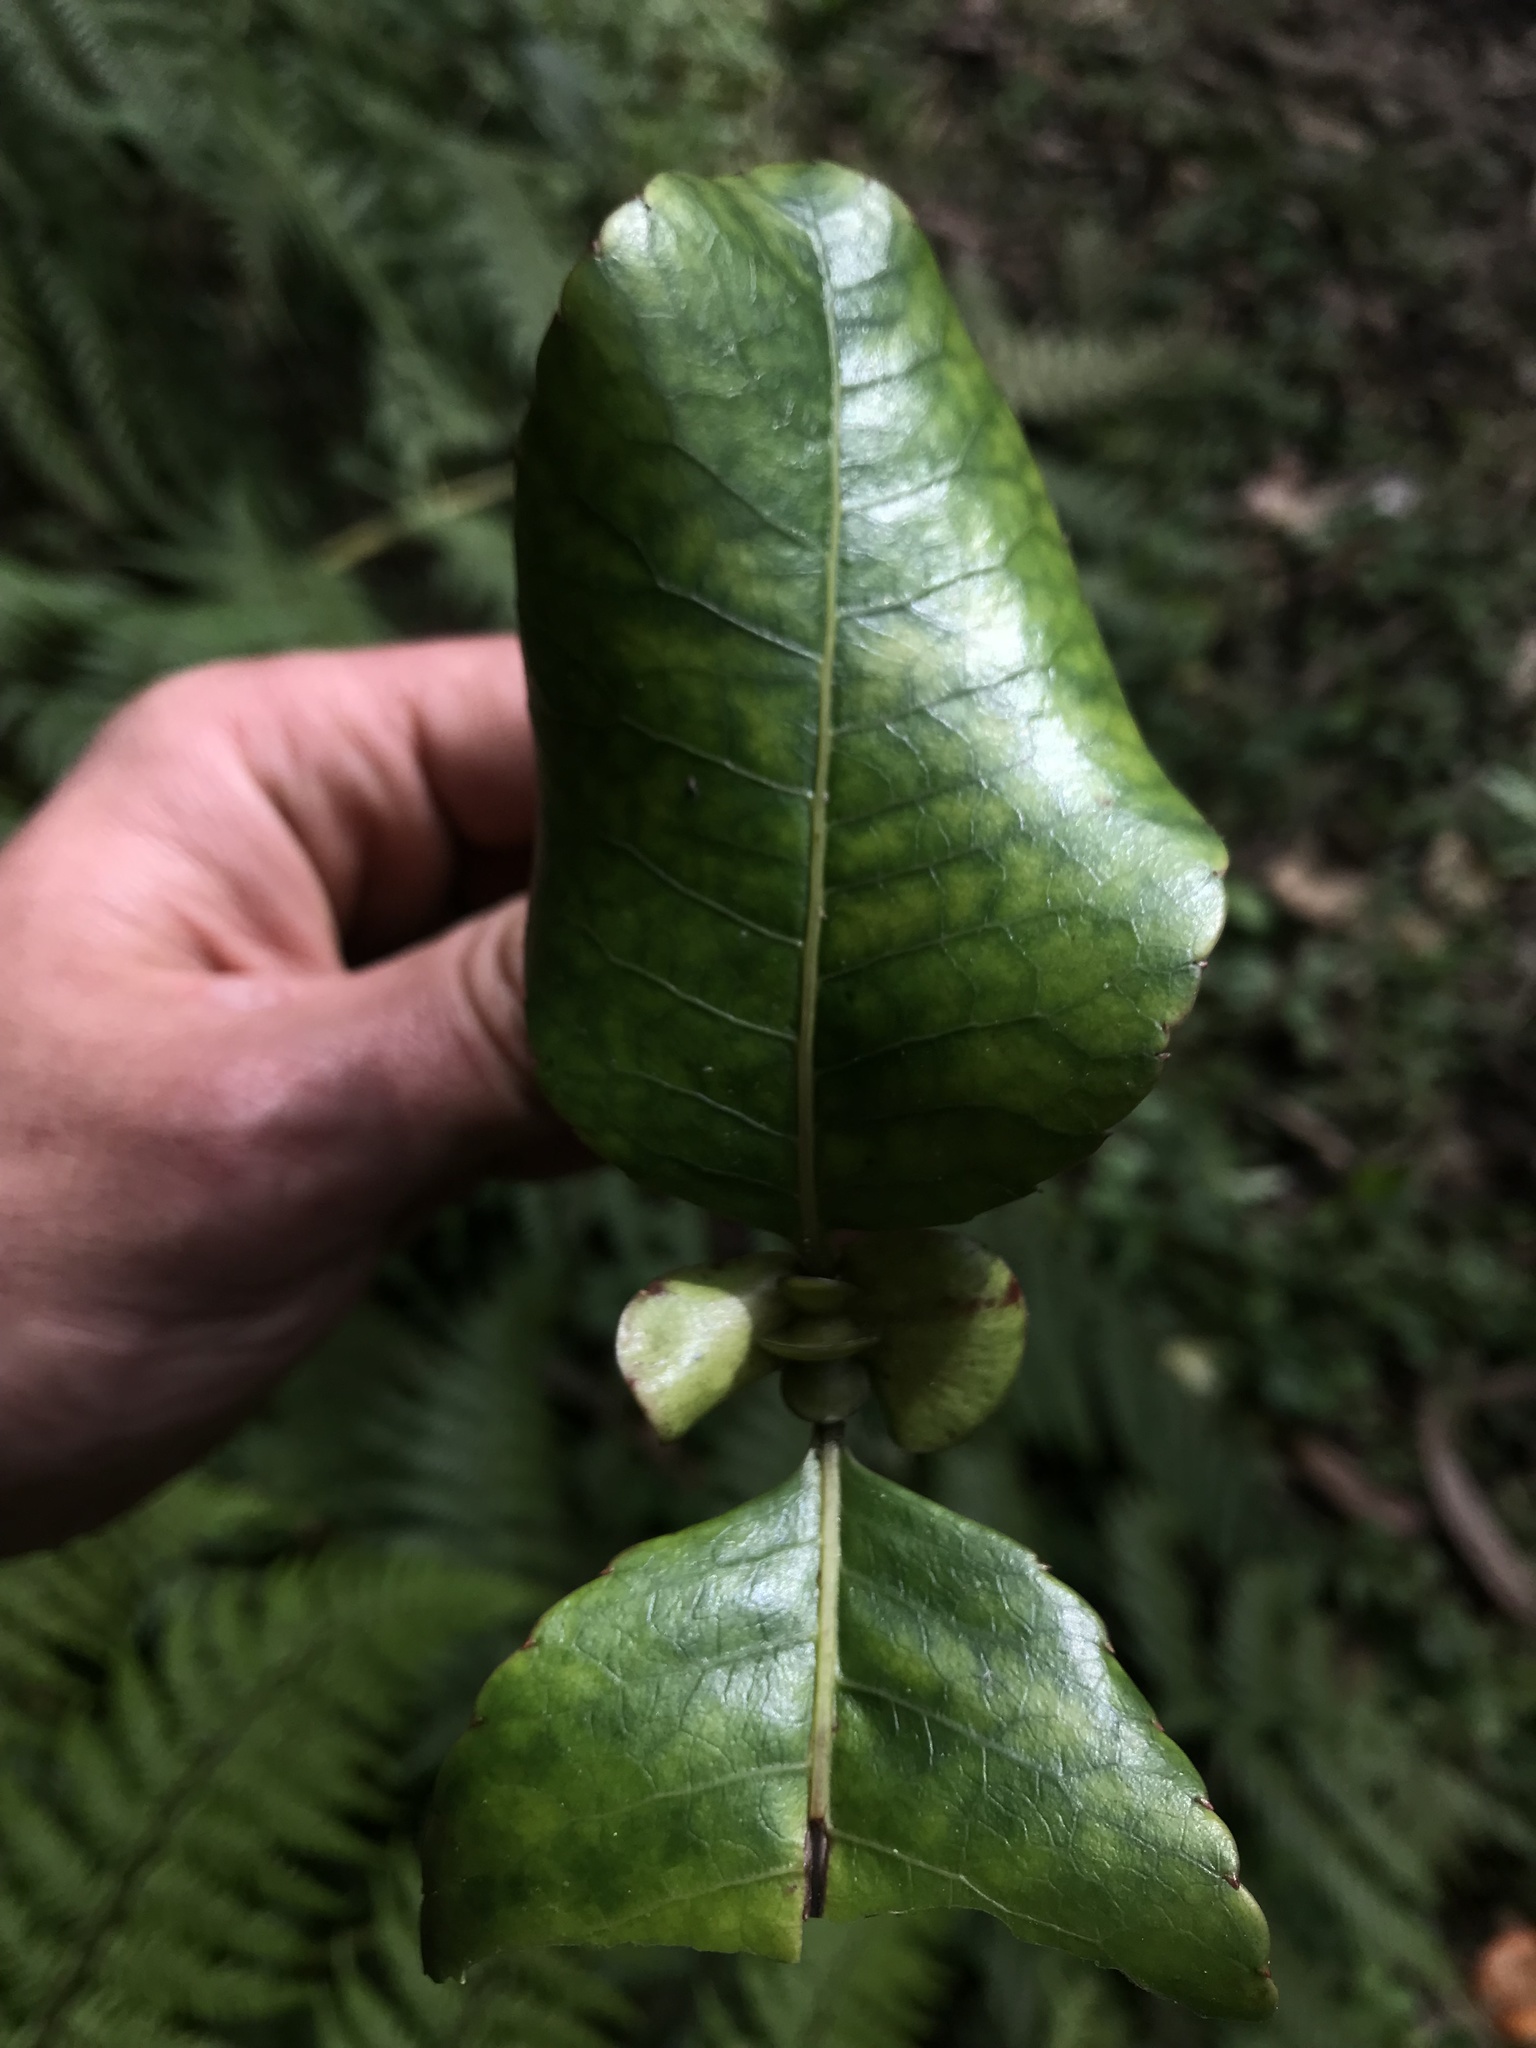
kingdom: Plantae
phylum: Tracheophyta
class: Magnoliopsida
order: Oxalidales
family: Cunoniaceae
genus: Weinmannia
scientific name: Weinmannia balbisana
